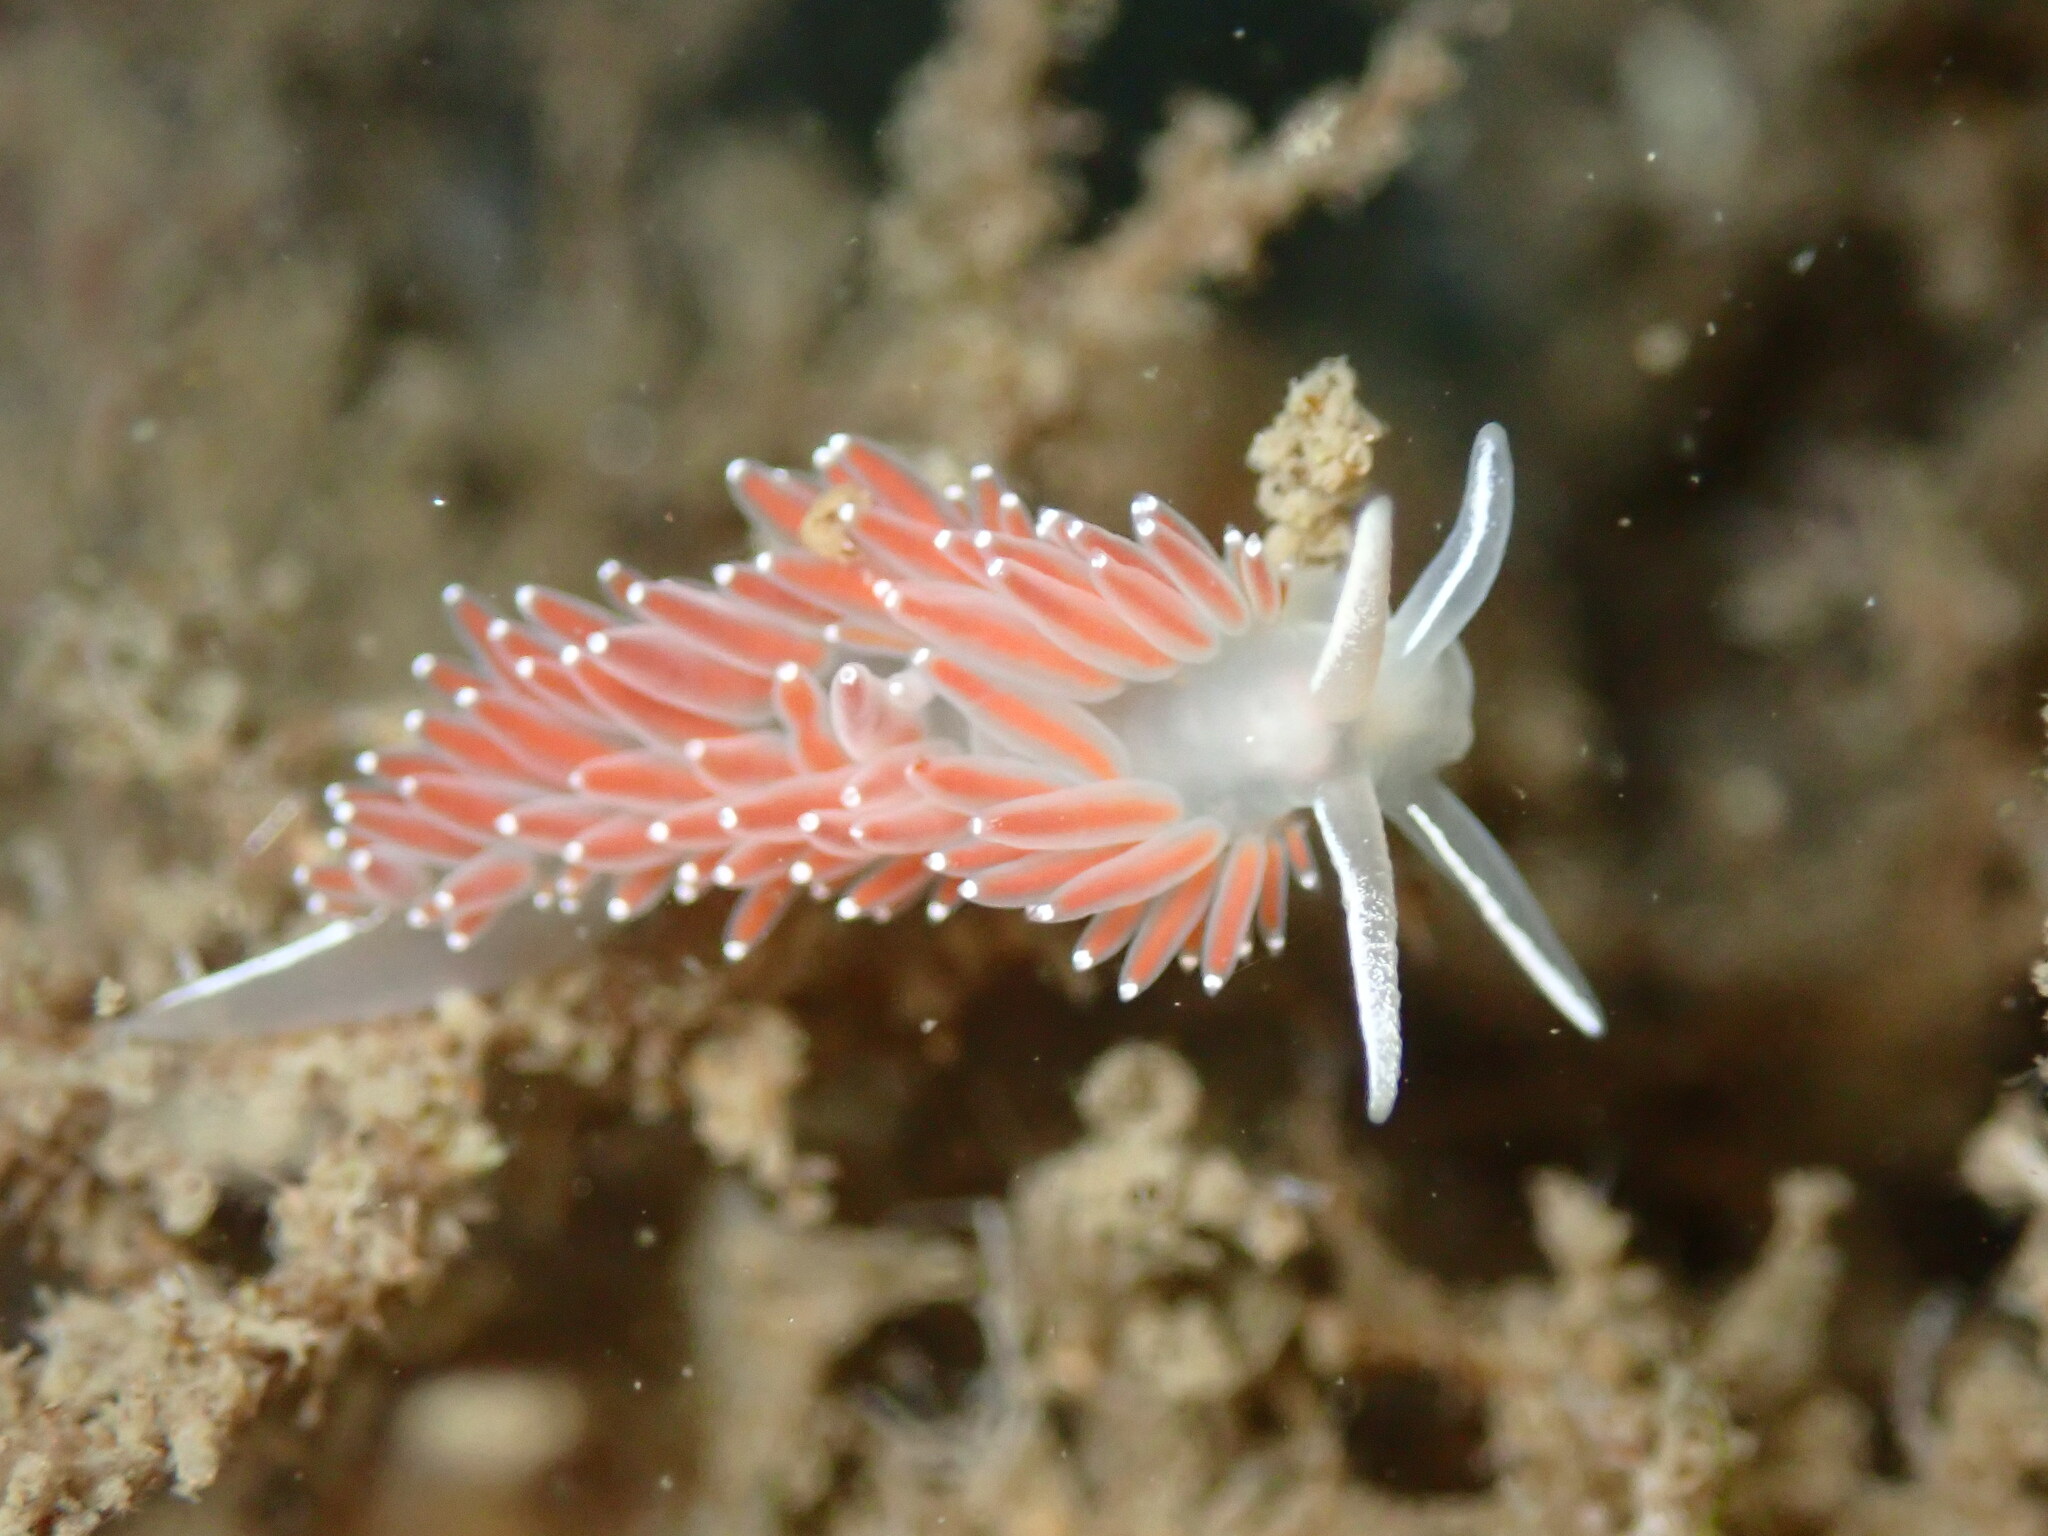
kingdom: Animalia
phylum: Mollusca
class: Gastropoda
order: Nudibranchia
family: Coryphellidae
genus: Coryphella
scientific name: Coryphella verrucosa
